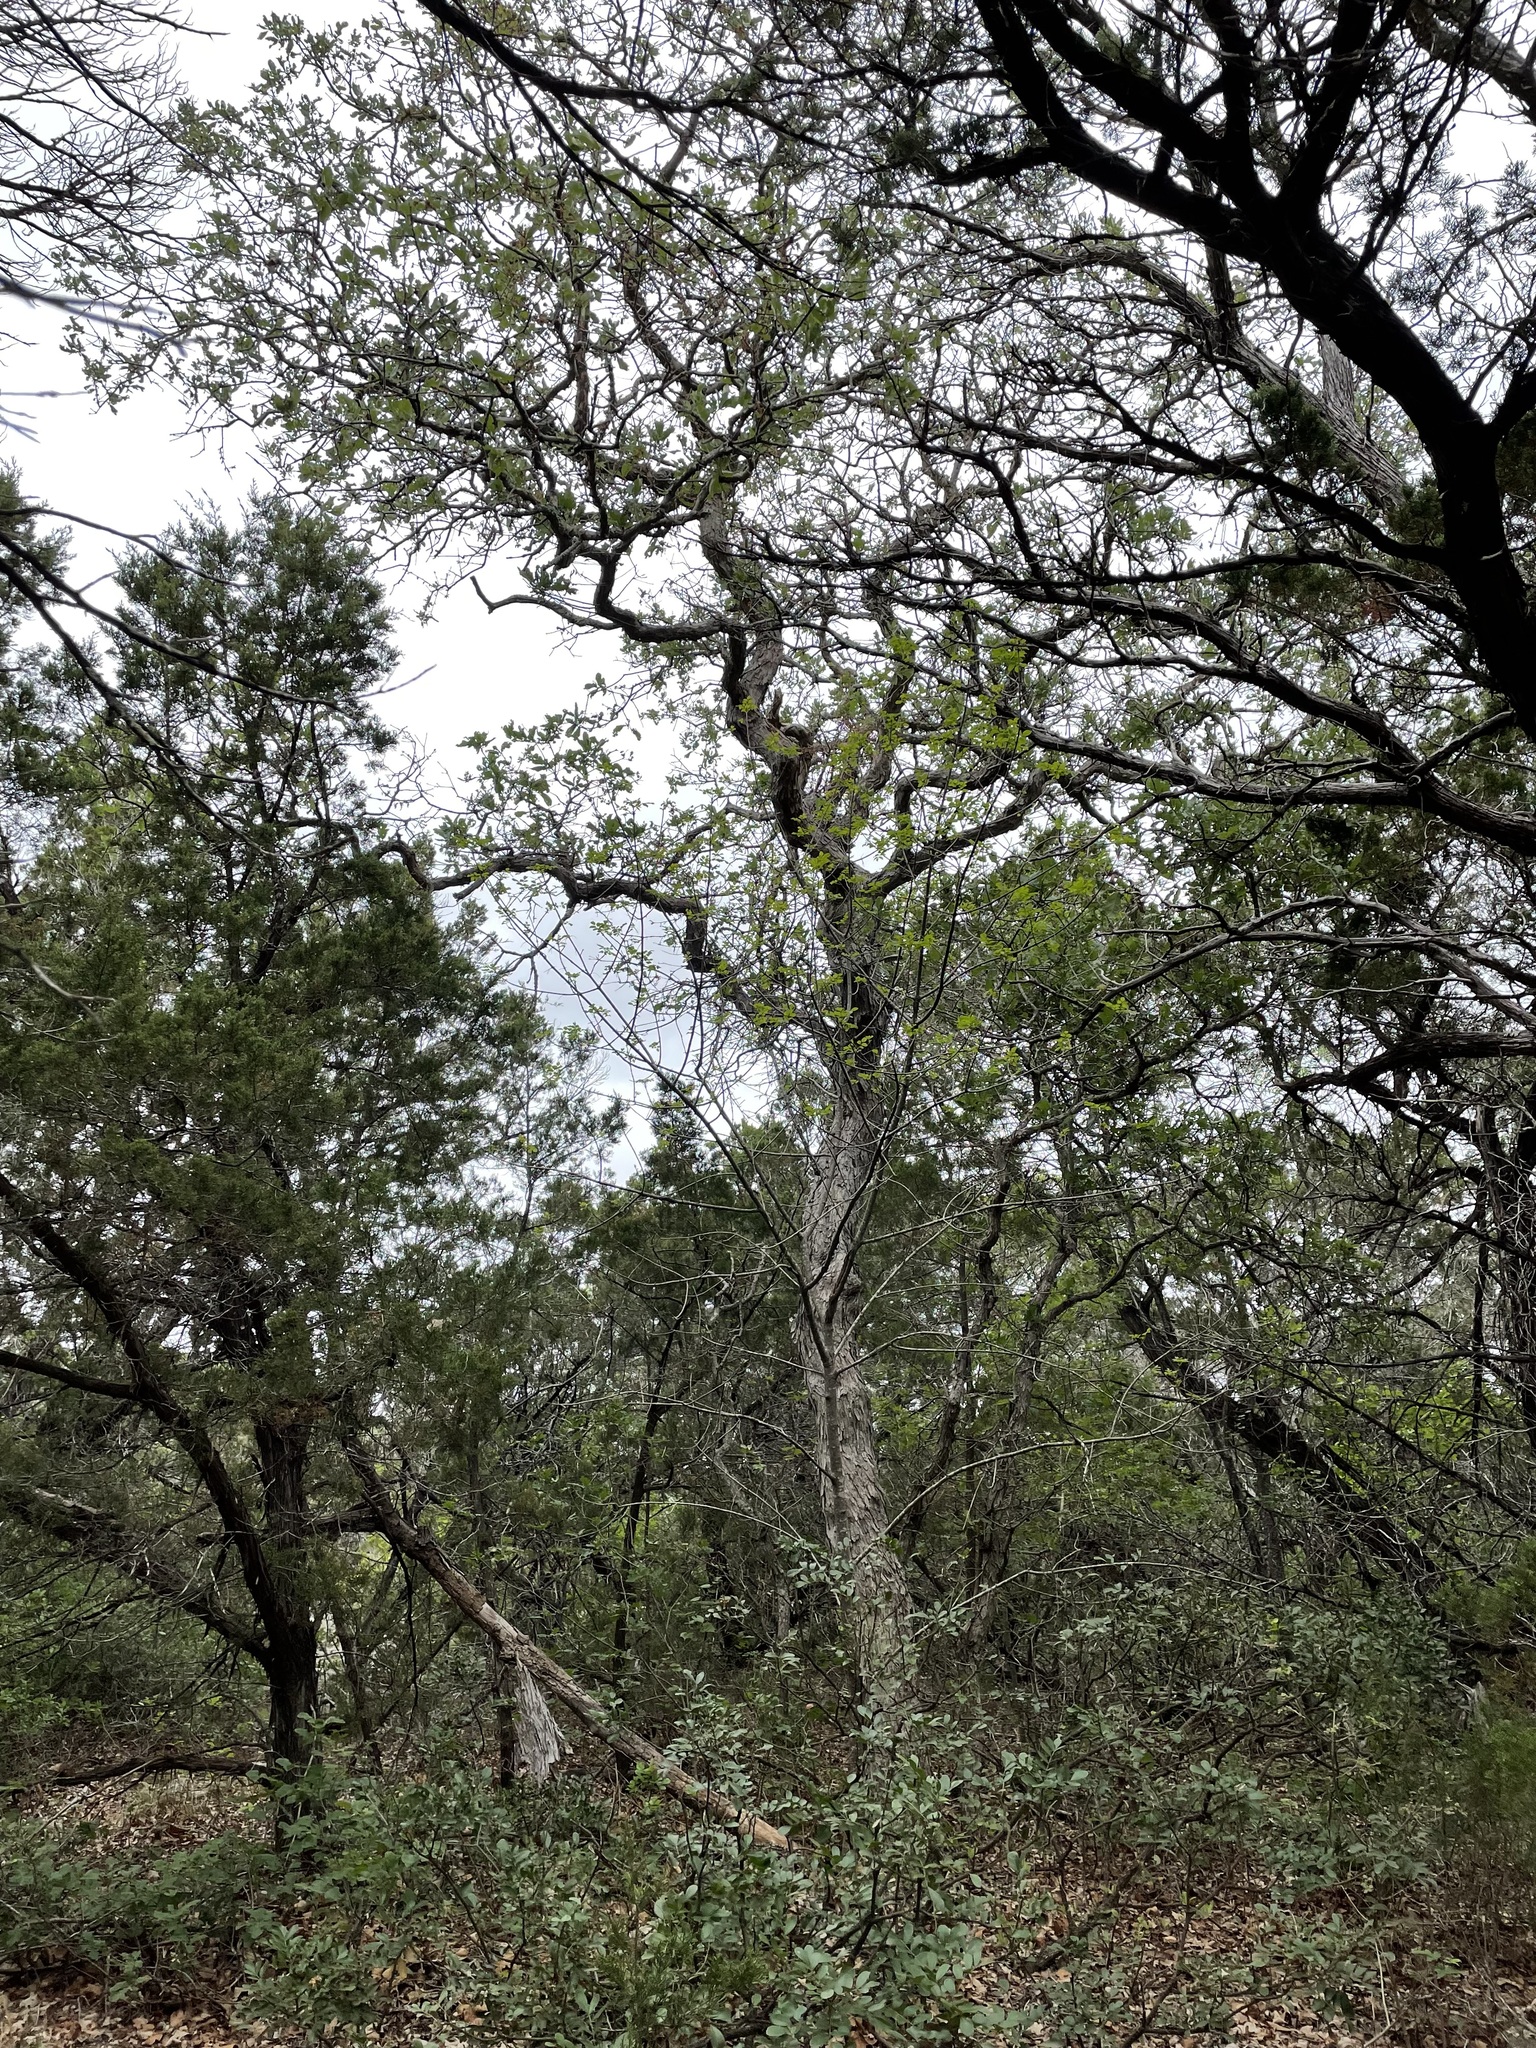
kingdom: Plantae
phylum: Tracheophyta
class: Magnoliopsida
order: Fagales
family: Fagaceae
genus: Quercus
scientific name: Quercus sinuata
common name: Durand oak
